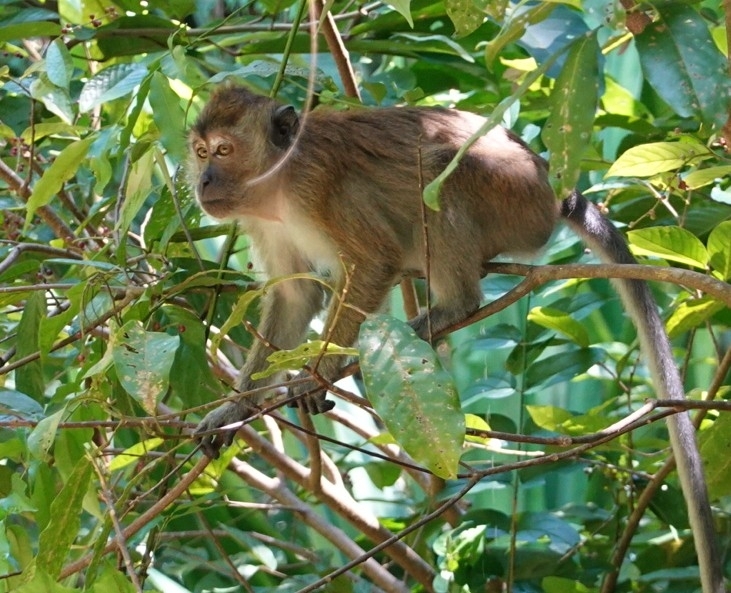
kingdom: Animalia
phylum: Chordata
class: Mammalia
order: Primates
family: Cercopithecidae
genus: Macaca
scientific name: Macaca fascicularis
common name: Crab-eating macaque
